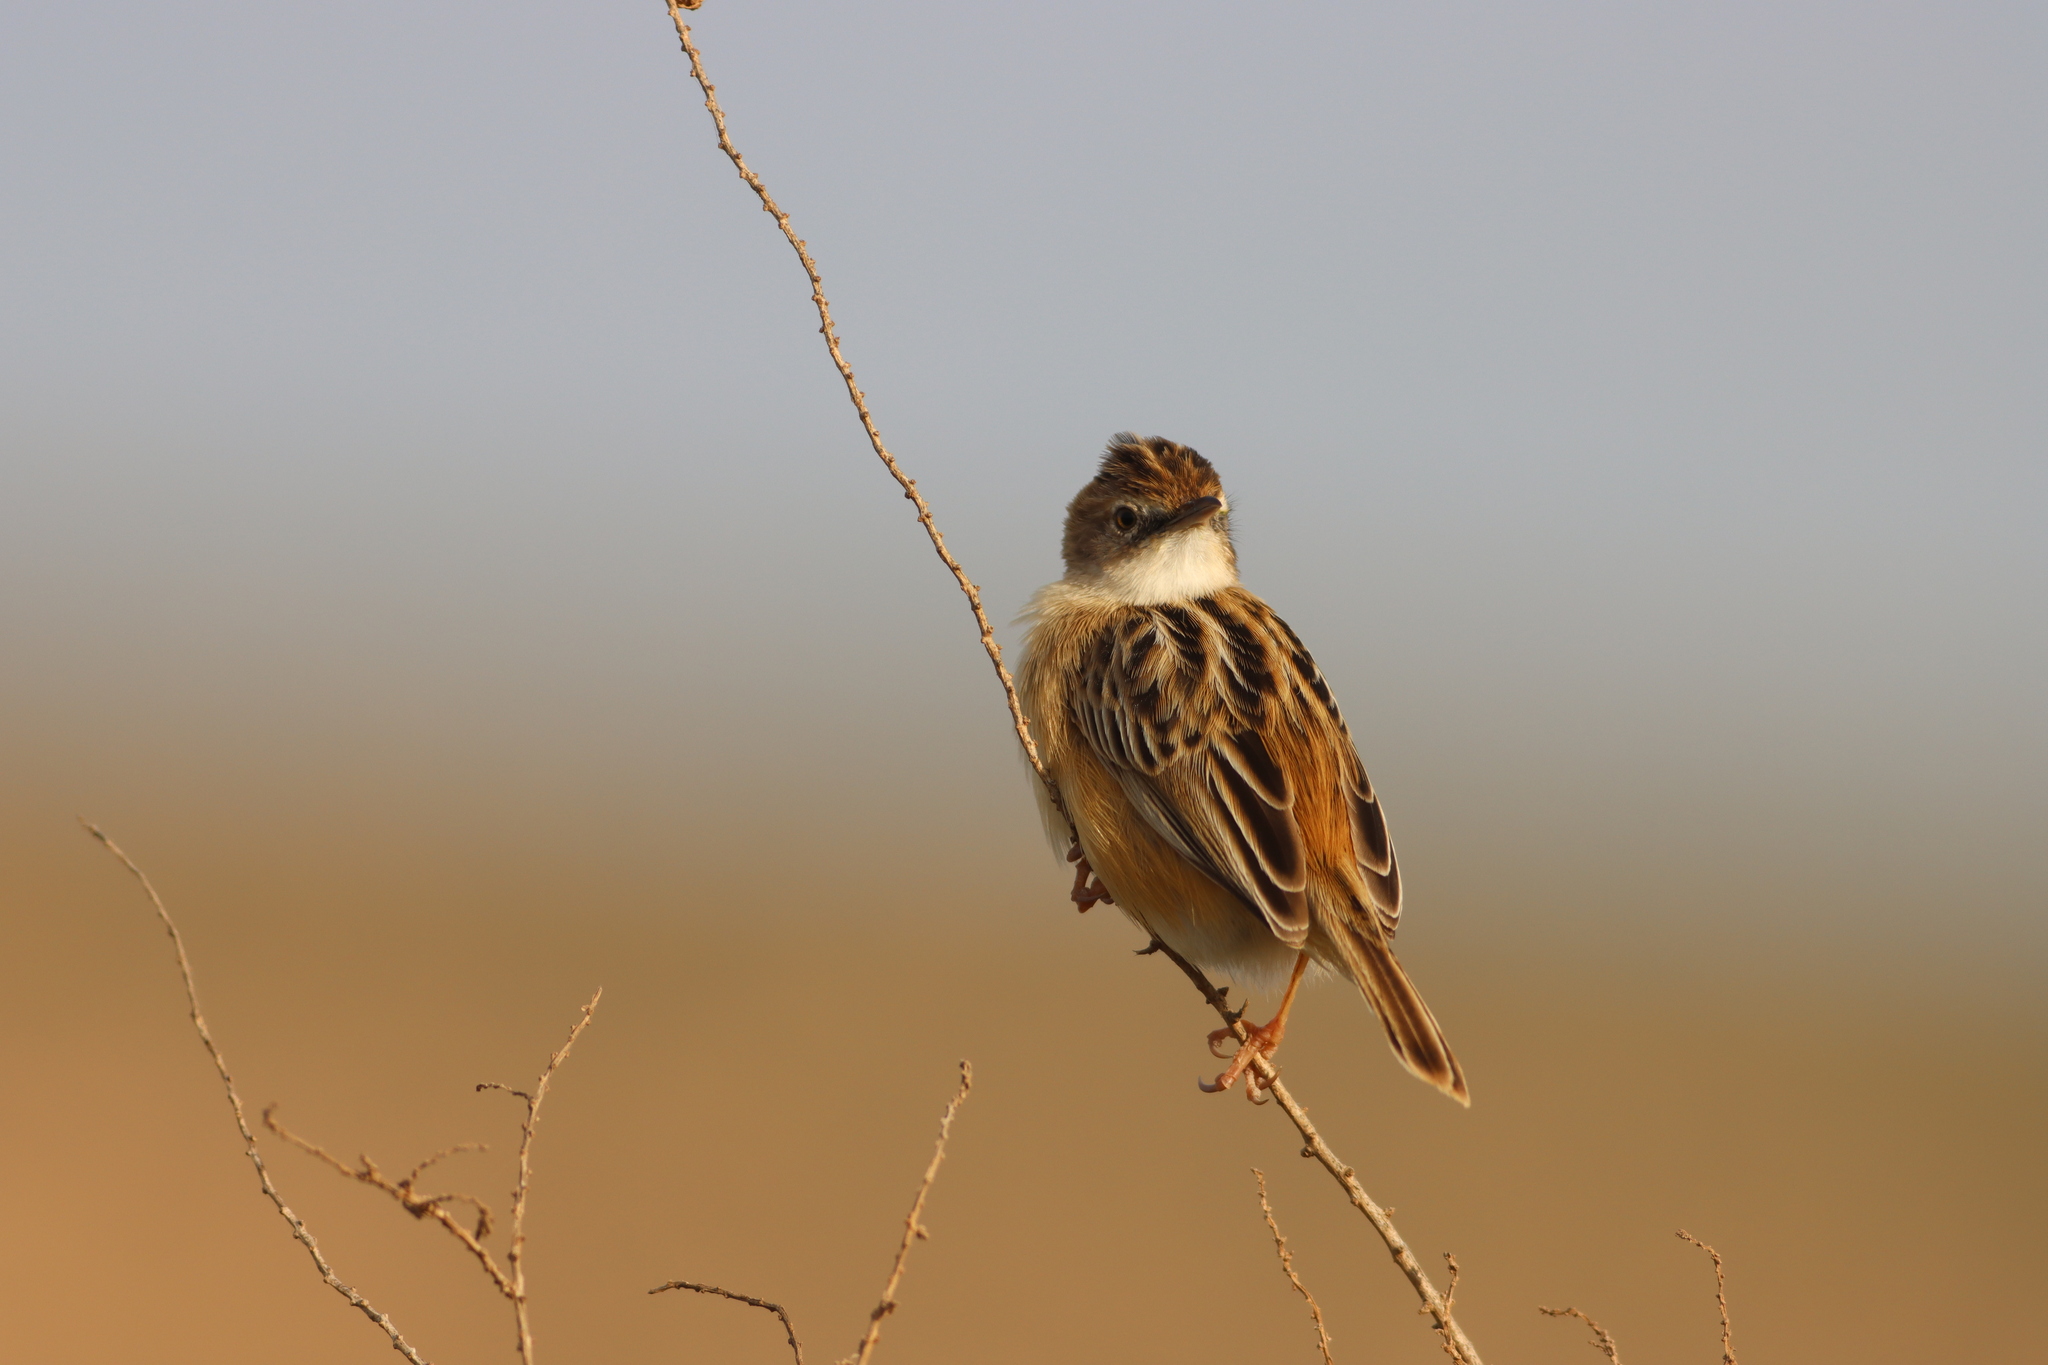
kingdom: Animalia
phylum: Chordata
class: Aves
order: Passeriformes
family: Cisticolidae
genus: Cisticola
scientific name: Cisticola juncidis
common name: Zitting cisticola
